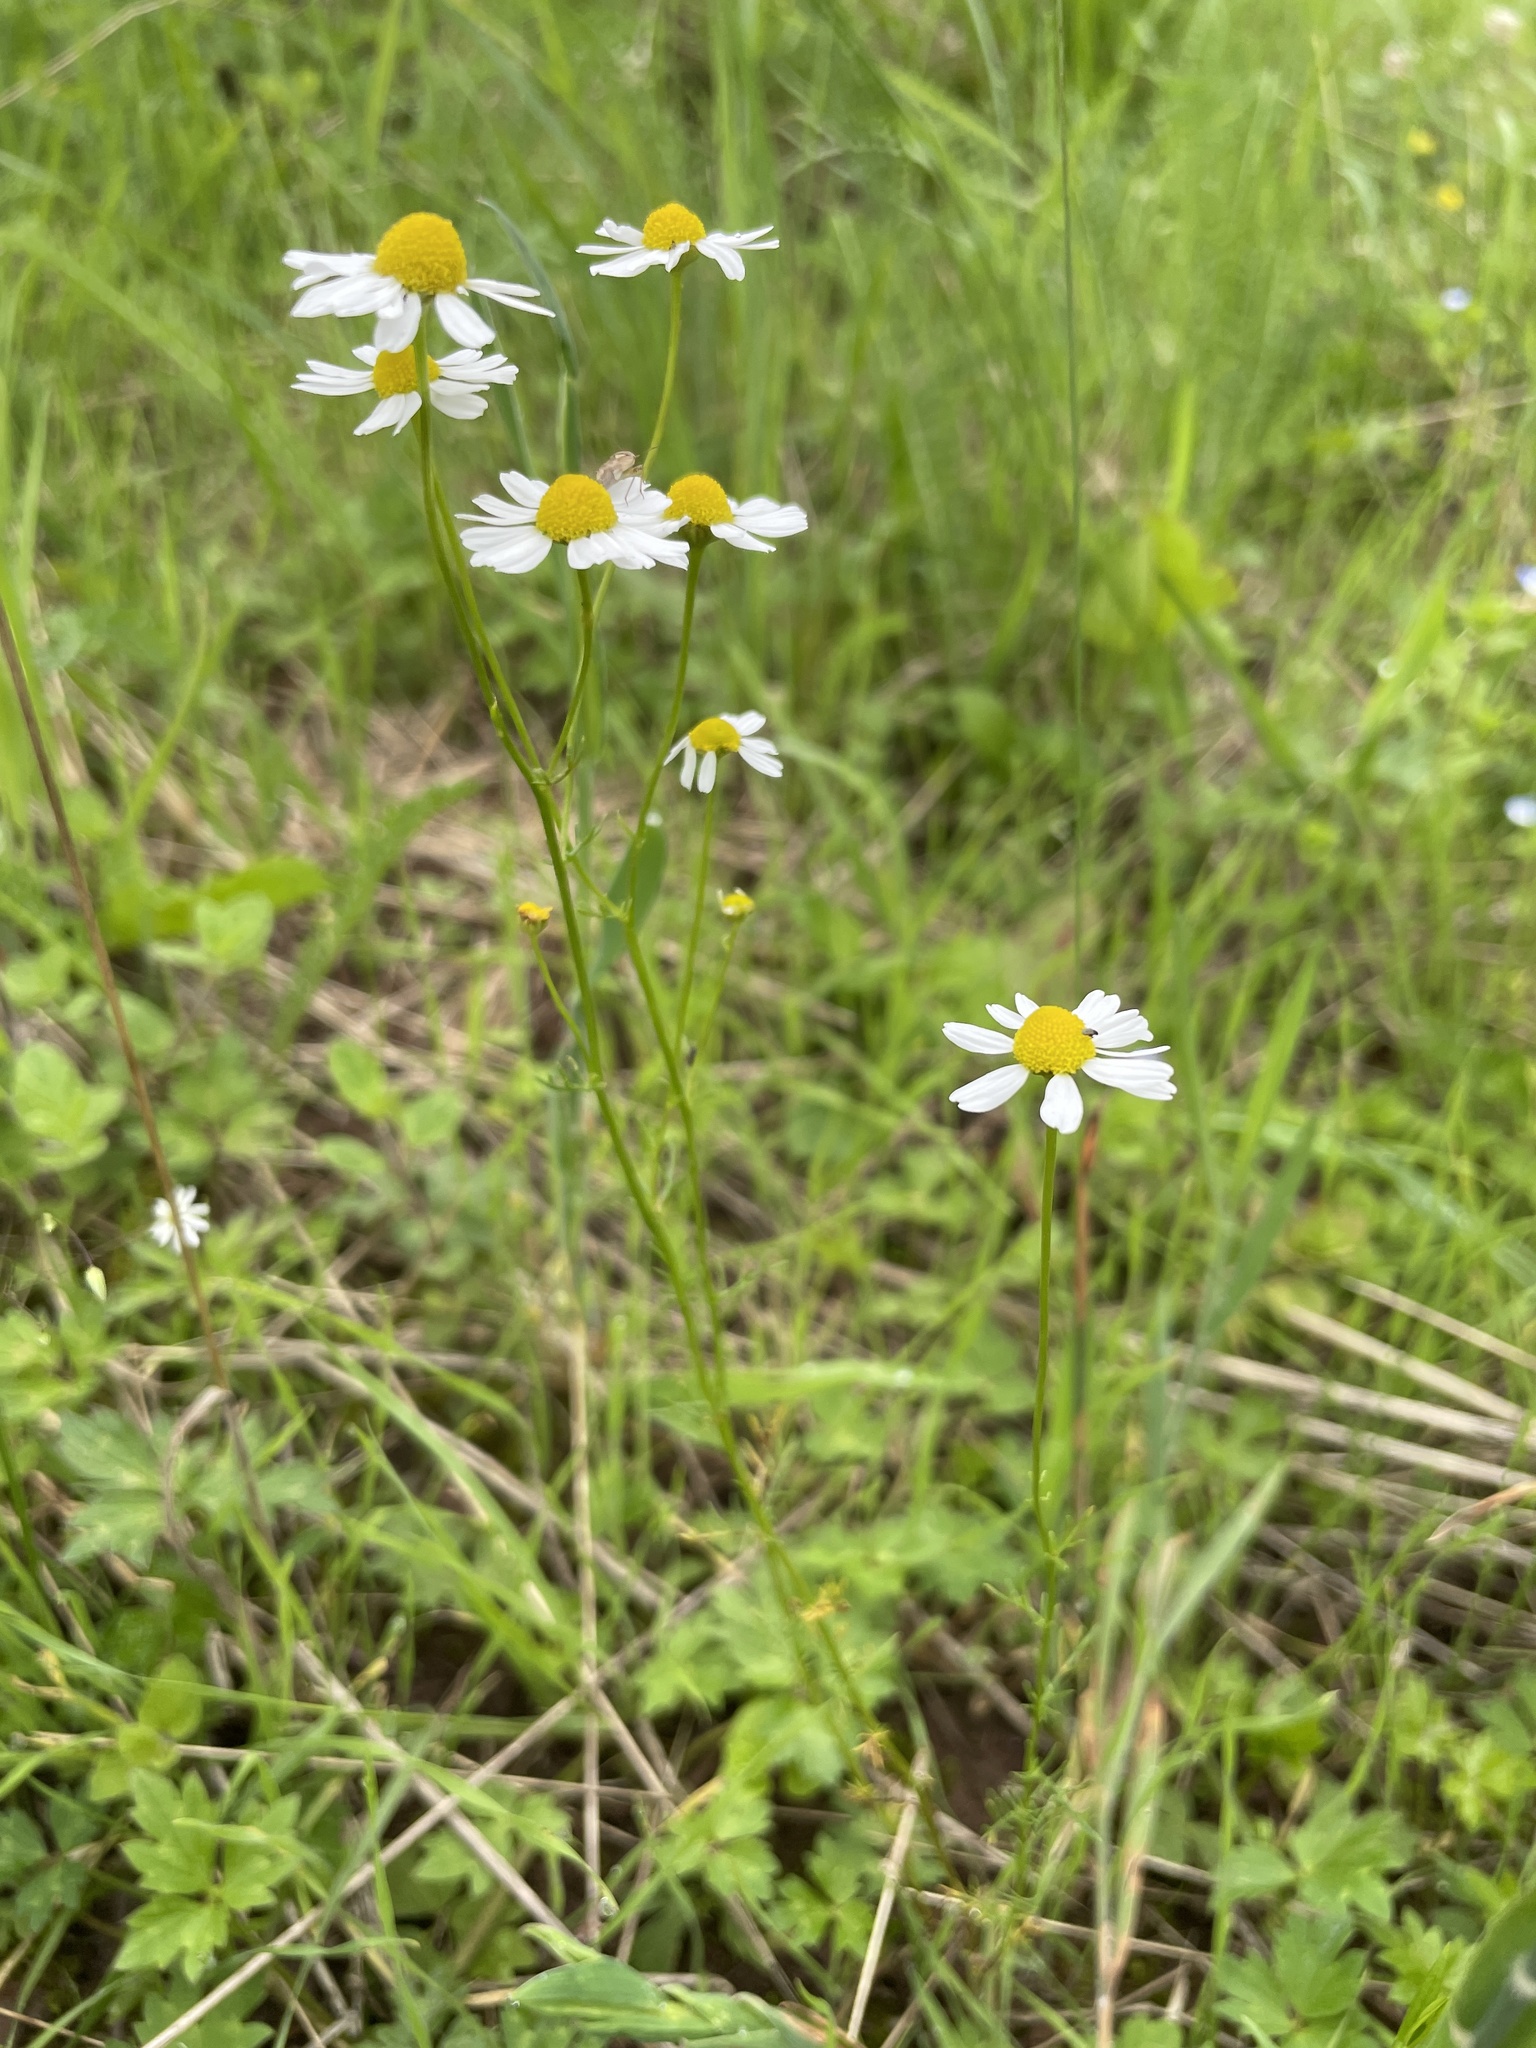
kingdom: Plantae
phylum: Tracheophyta
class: Magnoliopsida
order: Asterales
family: Asteraceae
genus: Matricaria
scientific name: Matricaria chamomilla
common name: Scented mayweed
